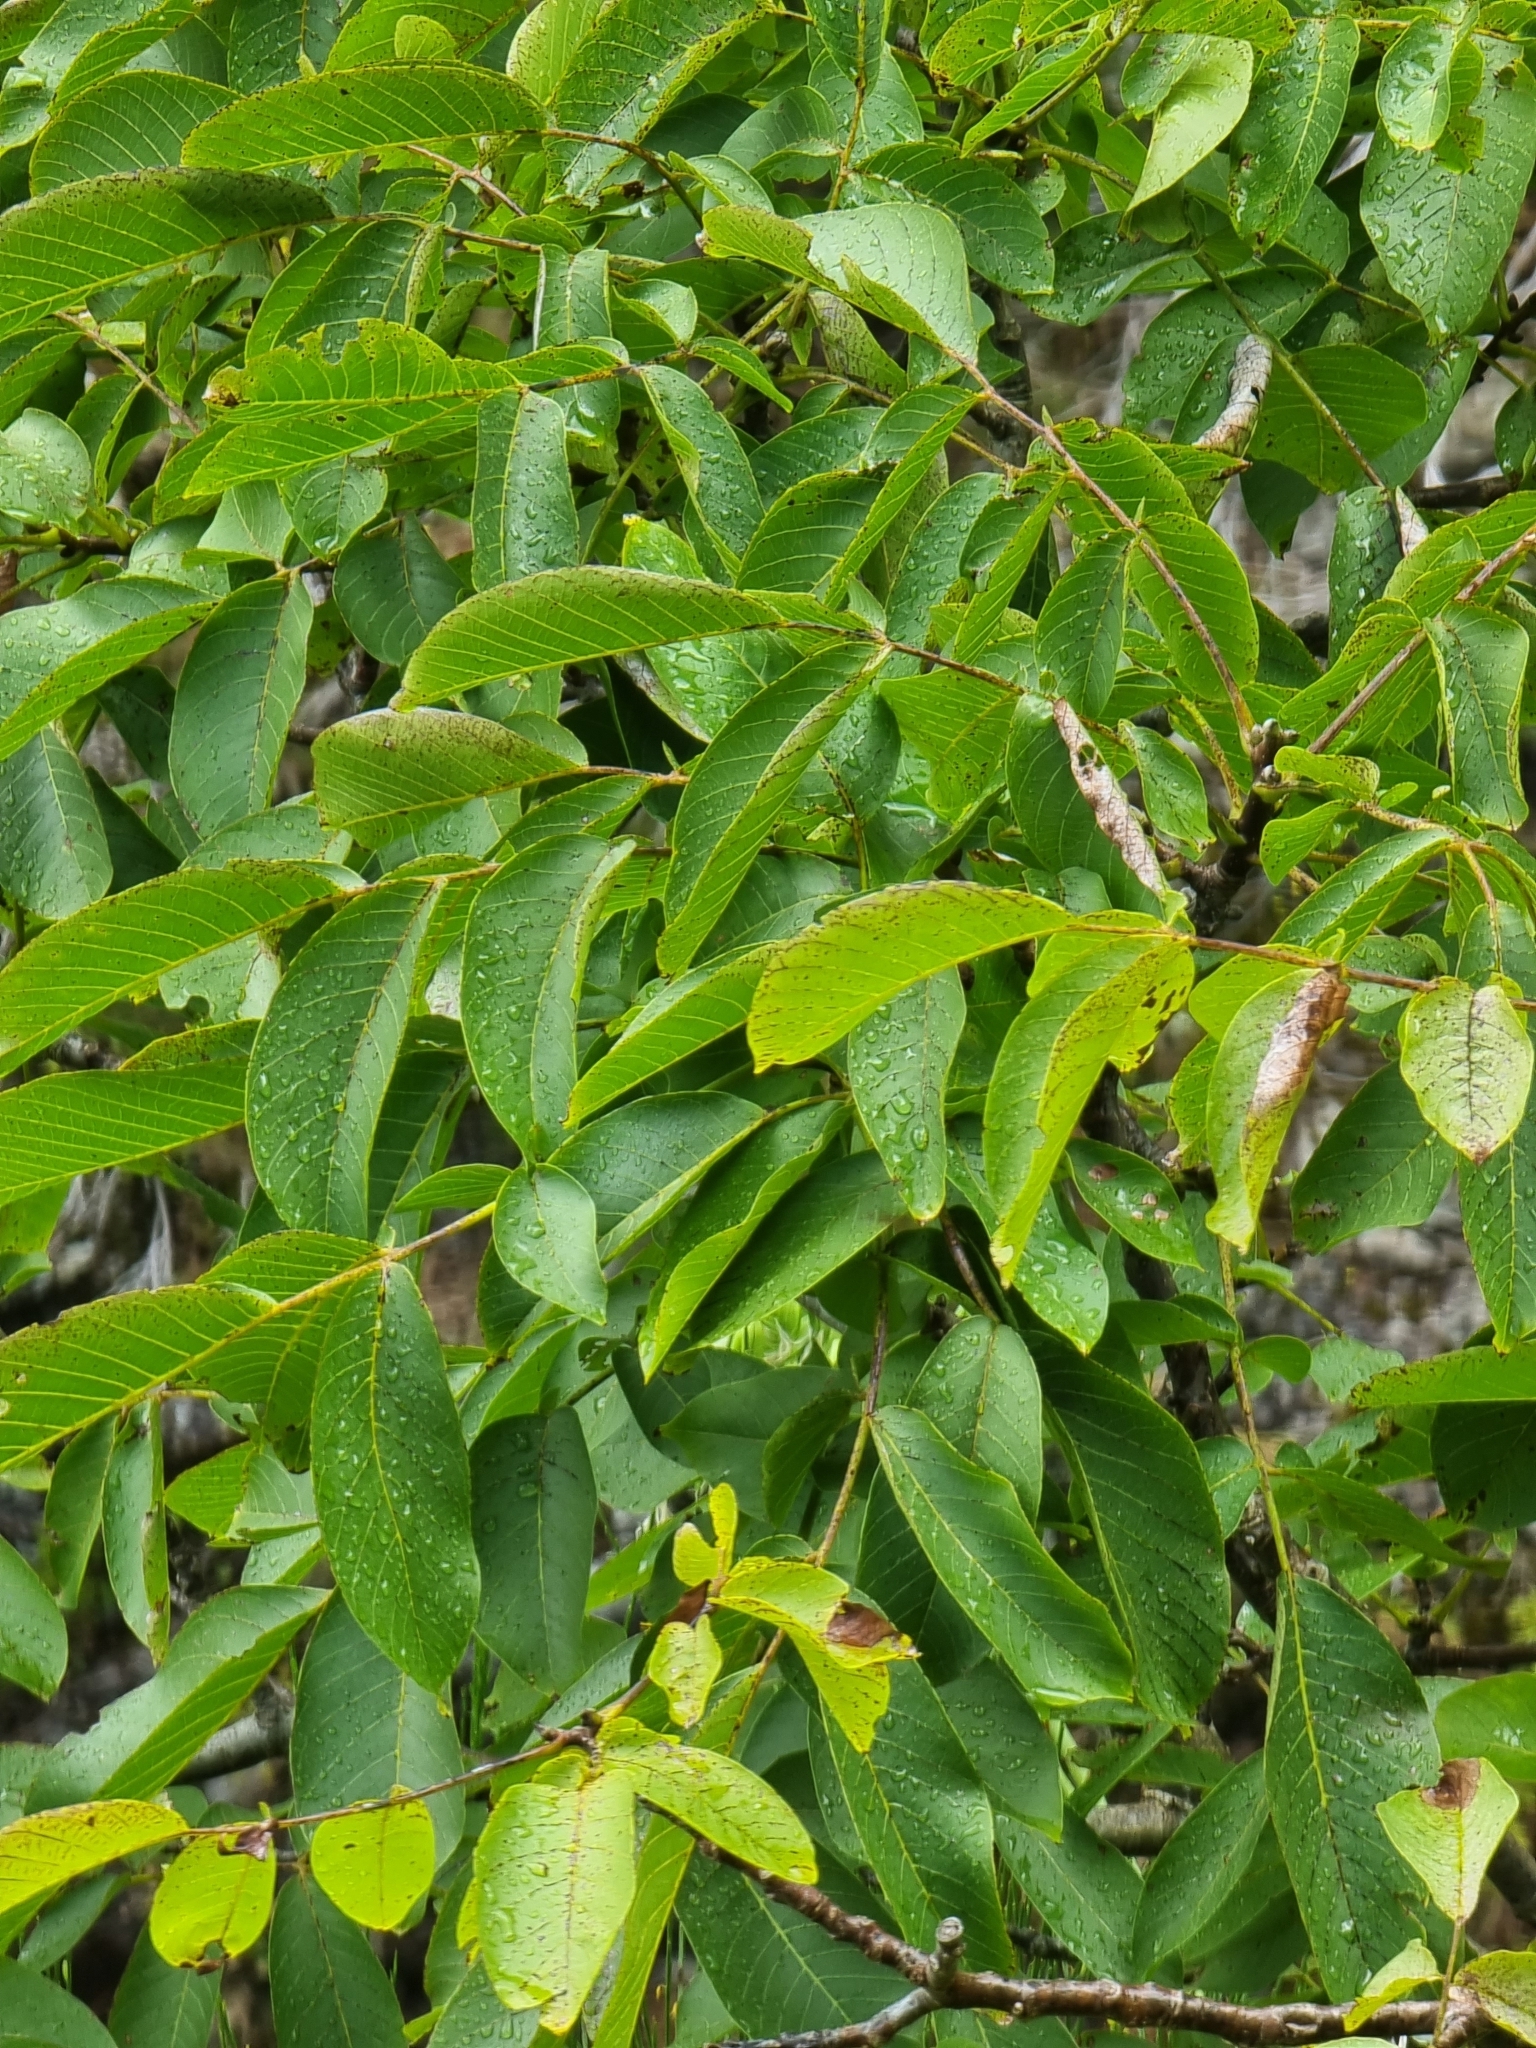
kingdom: Plantae
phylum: Tracheophyta
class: Magnoliopsida
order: Fagales
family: Juglandaceae
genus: Juglans
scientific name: Juglans regia
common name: Walnut
